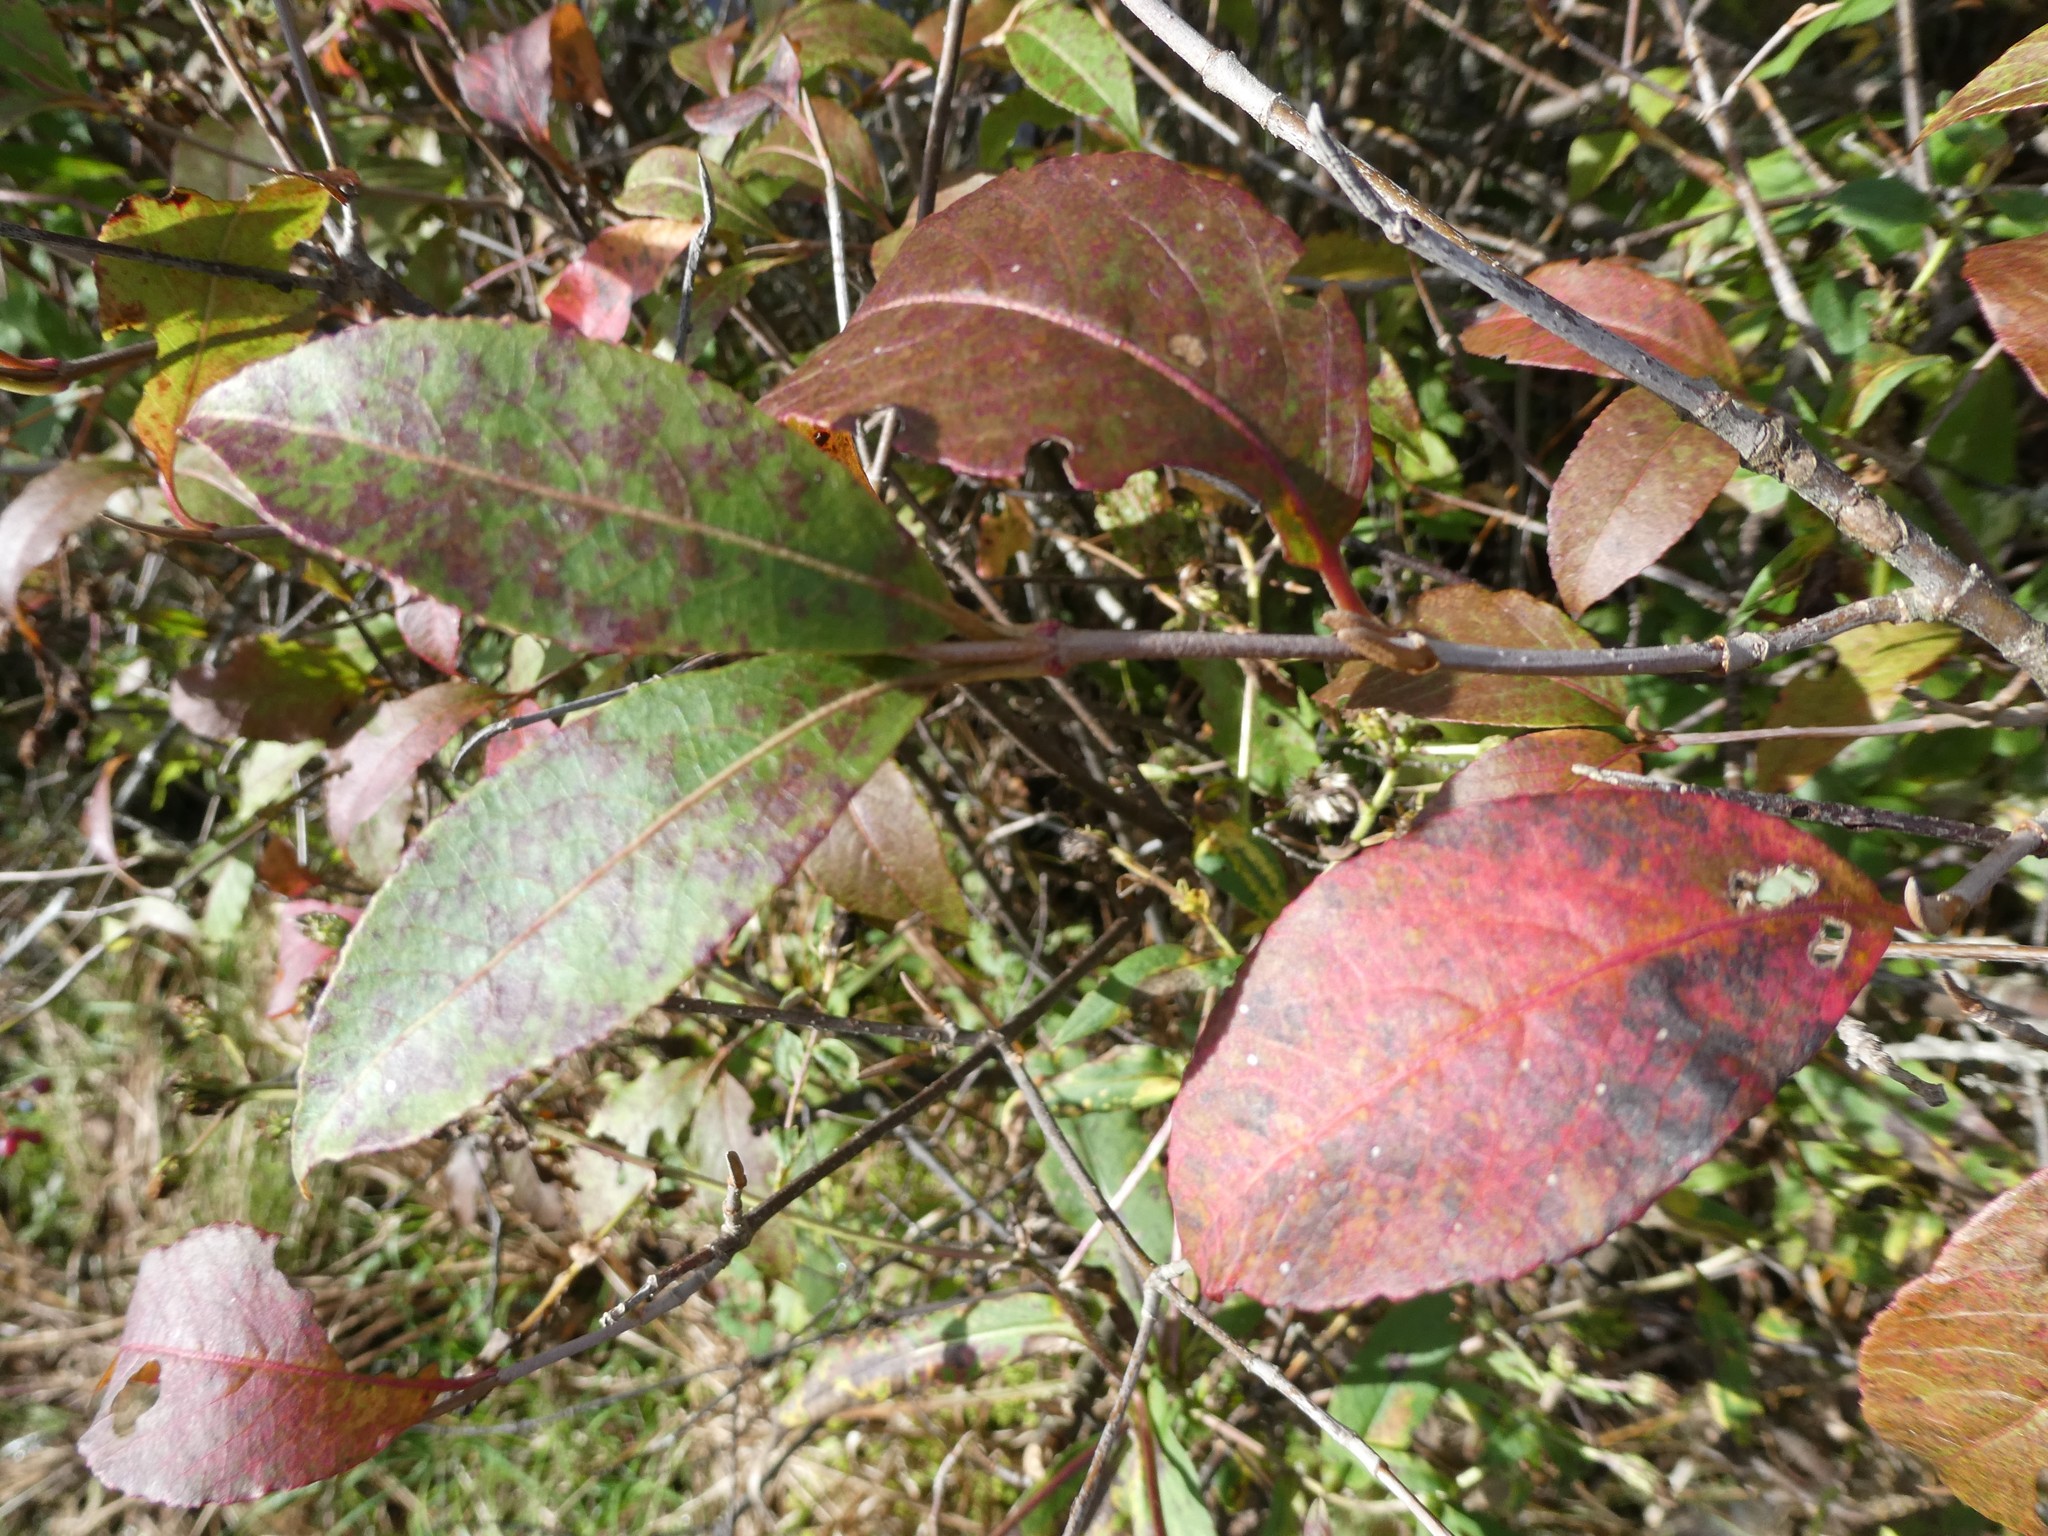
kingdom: Plantae
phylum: Tracheophyta
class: Magnoliopsida
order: Dipsacales
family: Viburnaceae
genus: Viburnum
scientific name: Viburnum cassinoides
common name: Swamp haw
